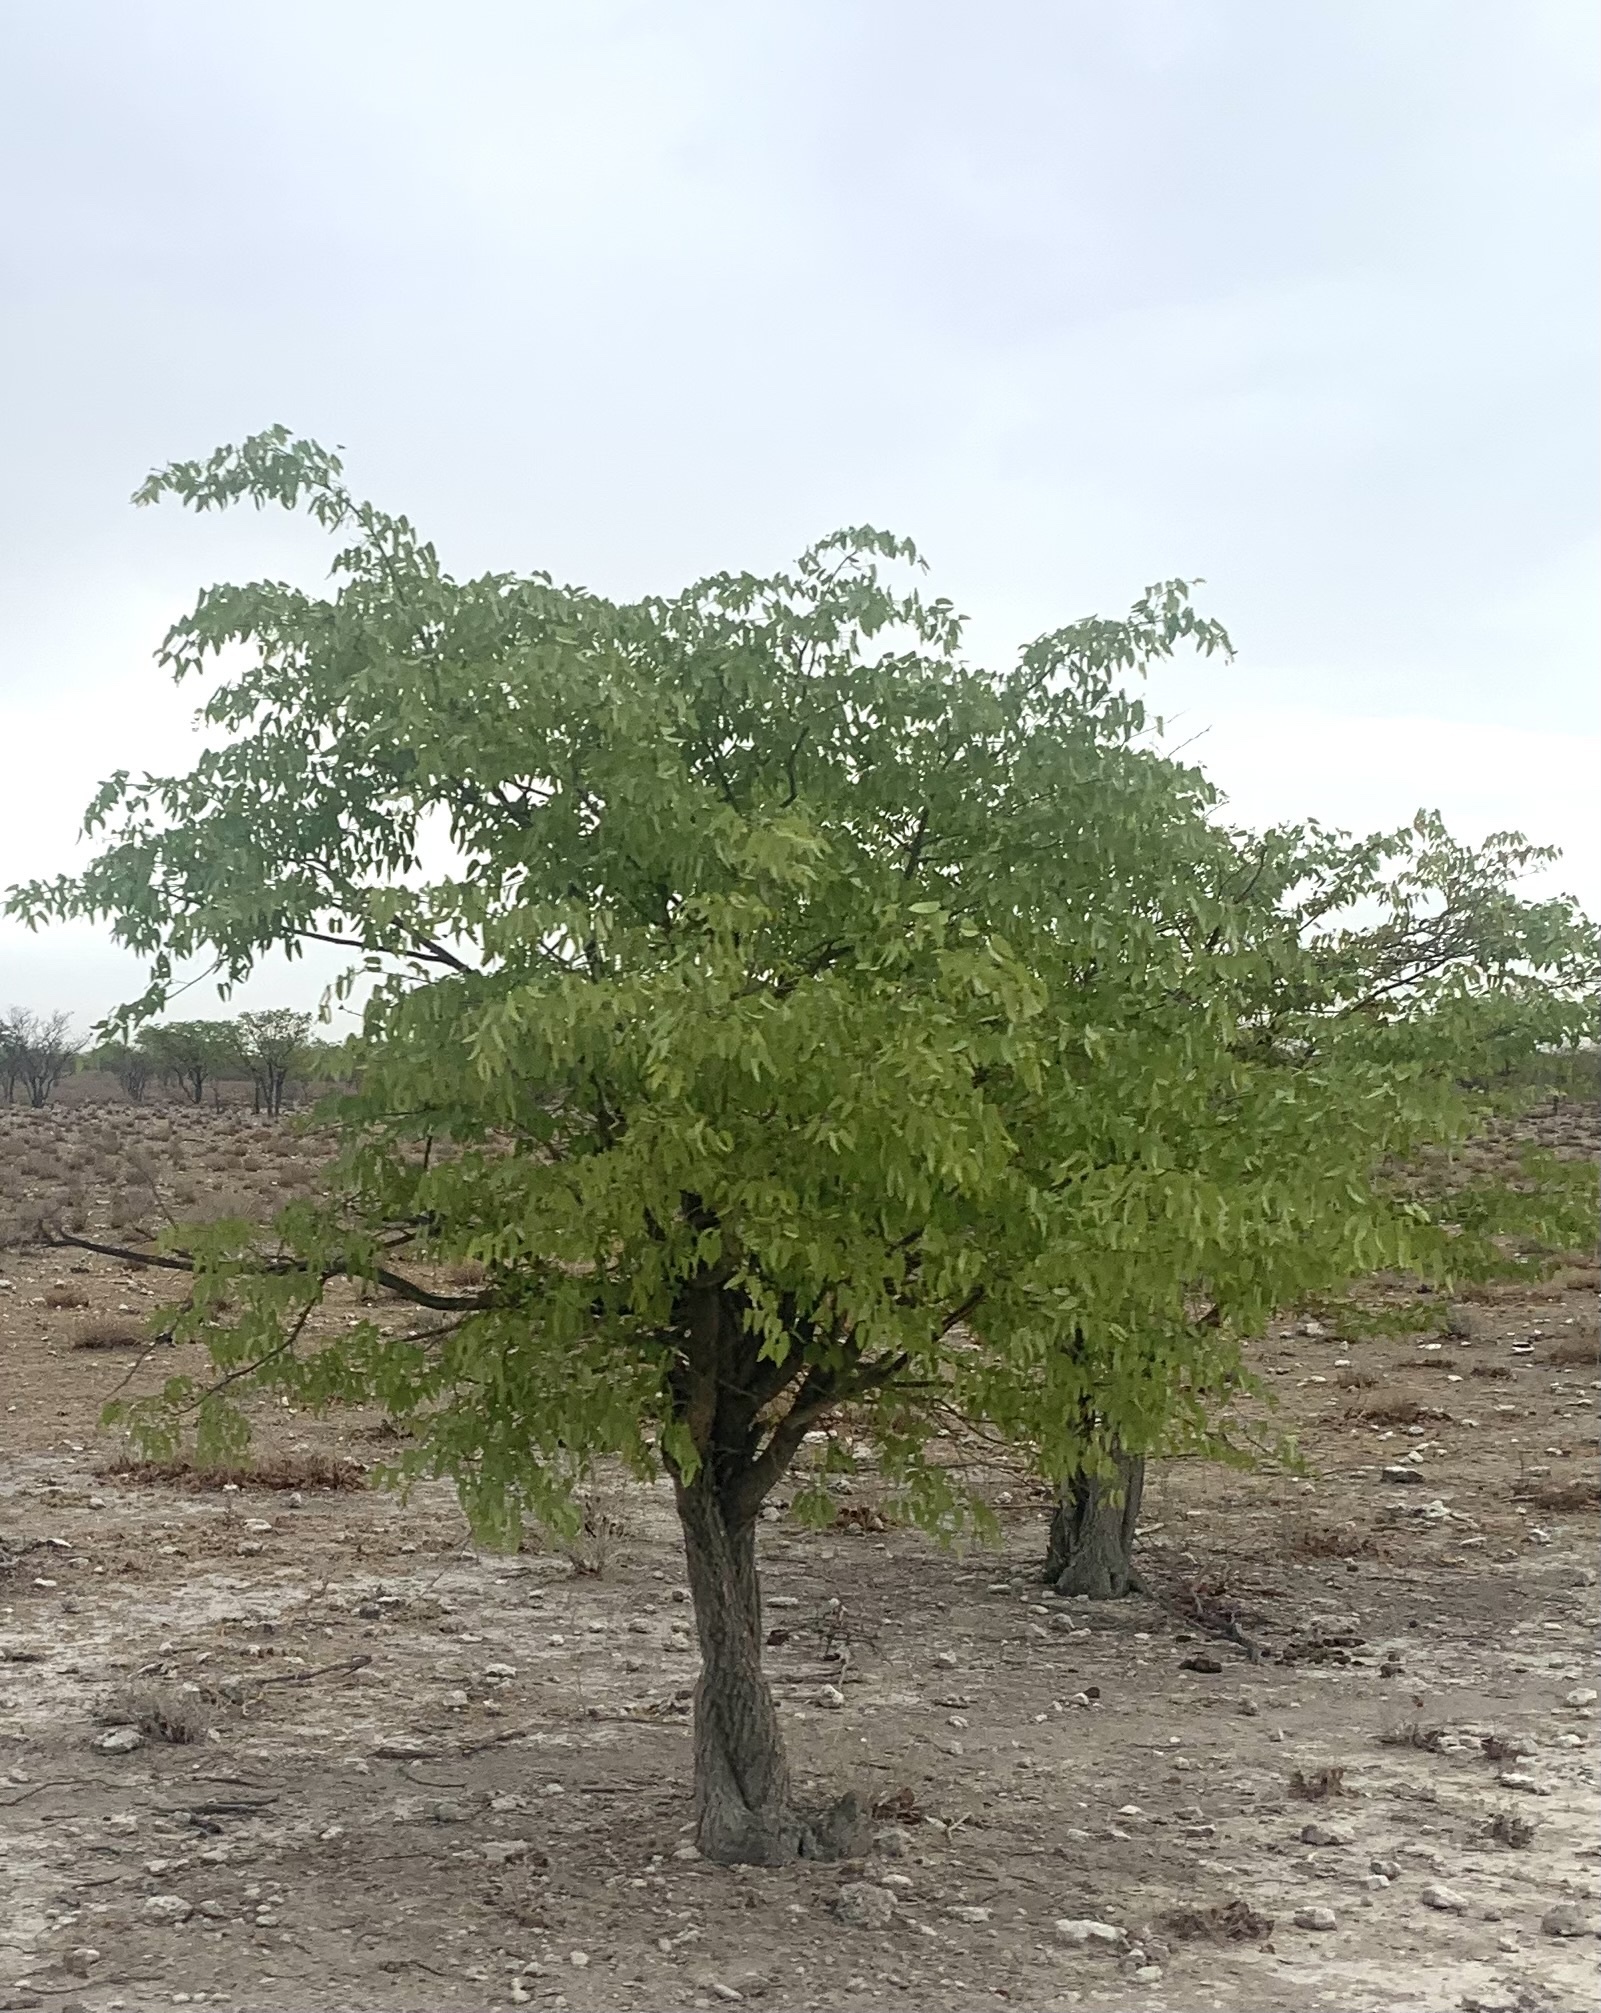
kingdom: Plantae
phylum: Tracheophyta
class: Magnoliopsida
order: Fabales
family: Fabaceae
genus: Colophospermum
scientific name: Colophospermum mopane
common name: Mopane
